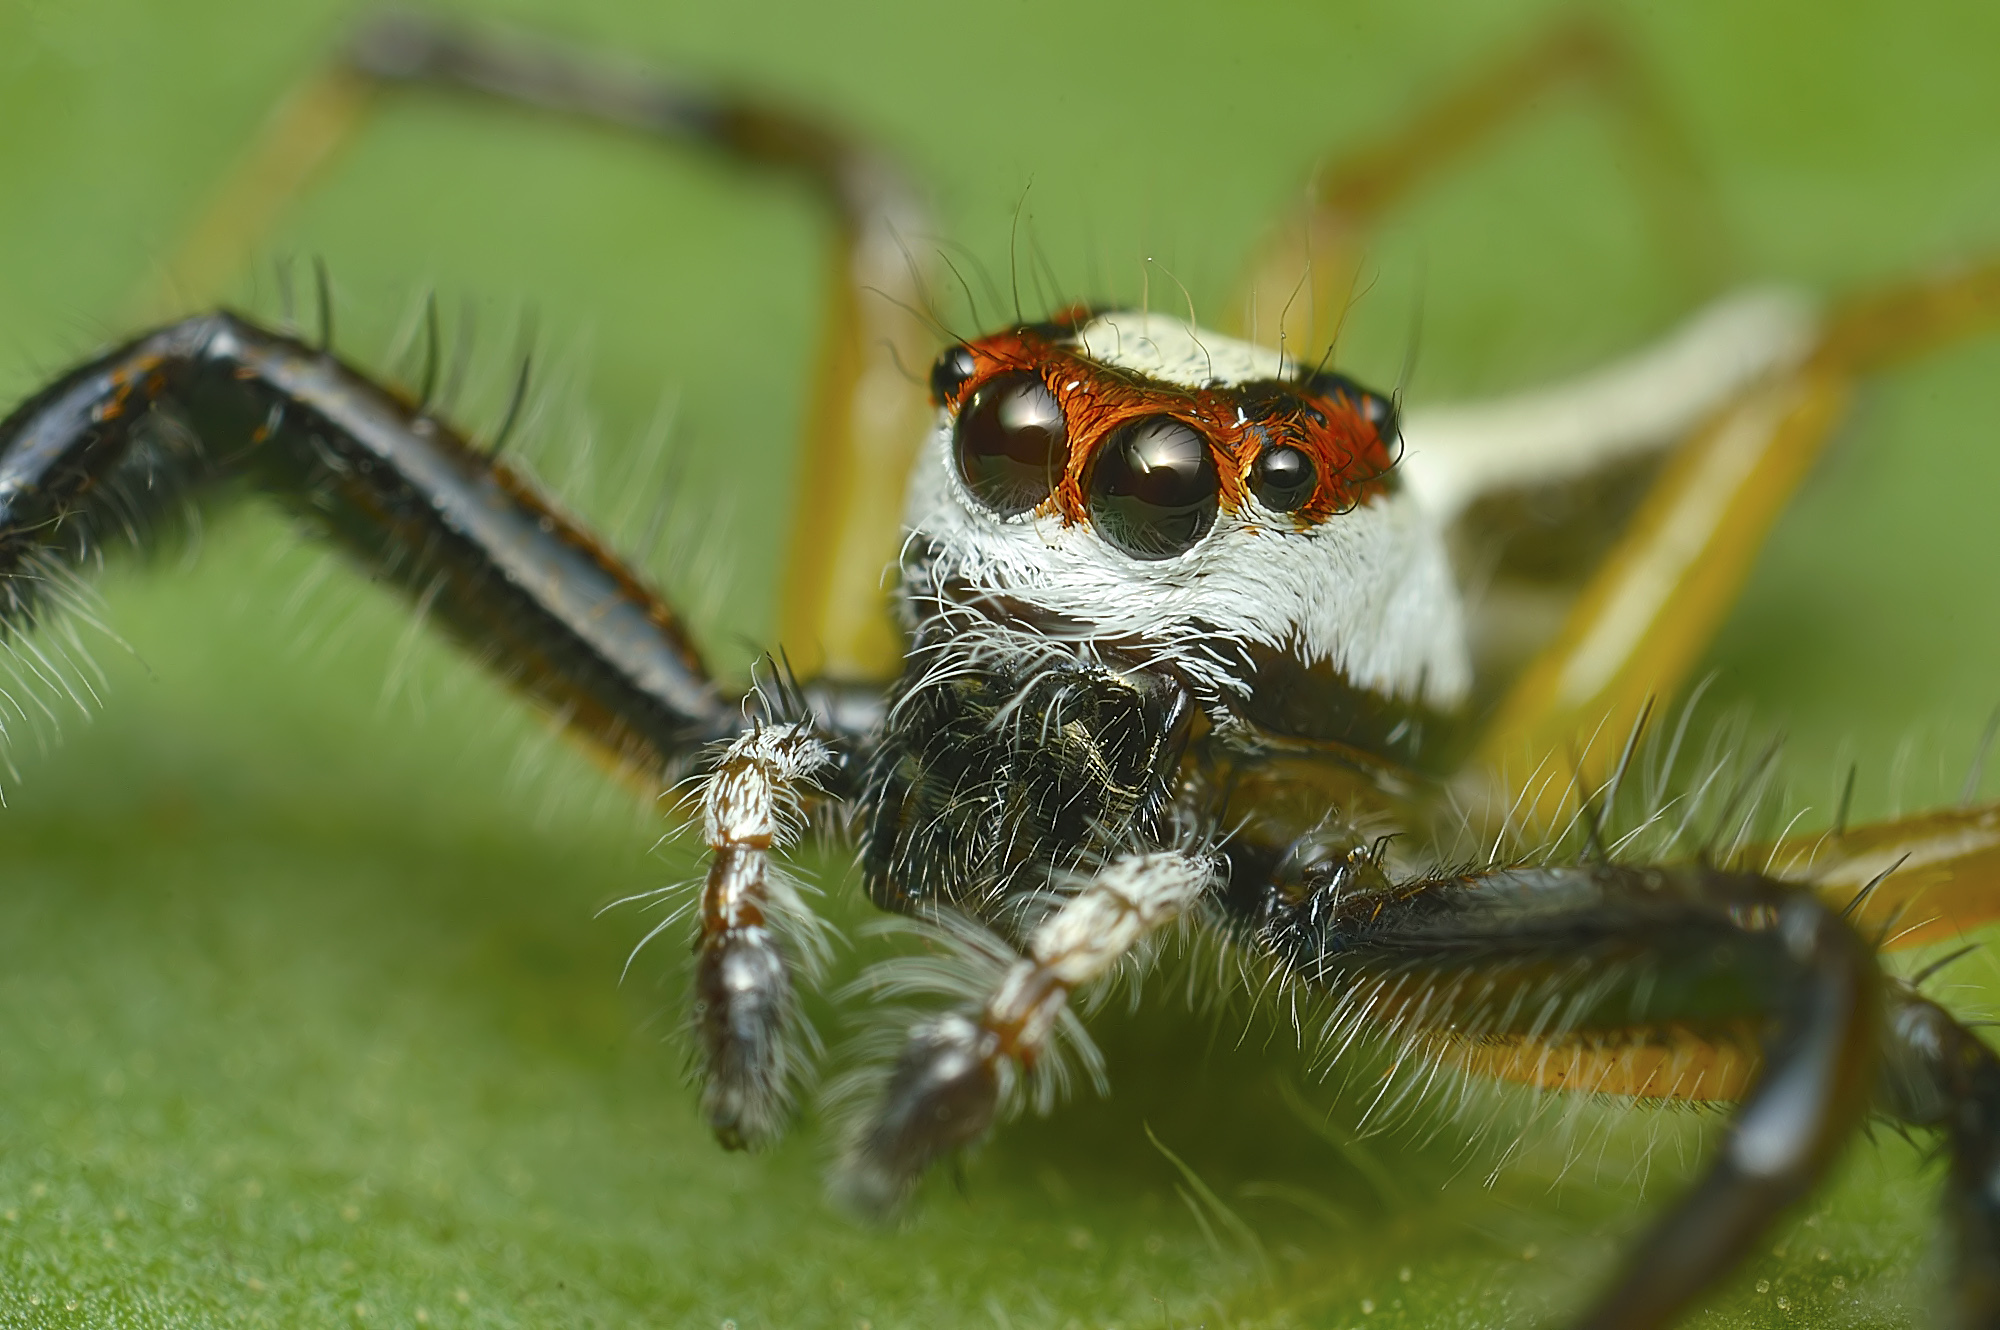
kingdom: Animalia
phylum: Arthropoda
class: Arachnida
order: Araneae
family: Salticidae
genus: Telamonia
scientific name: Telamonia dimidiata
